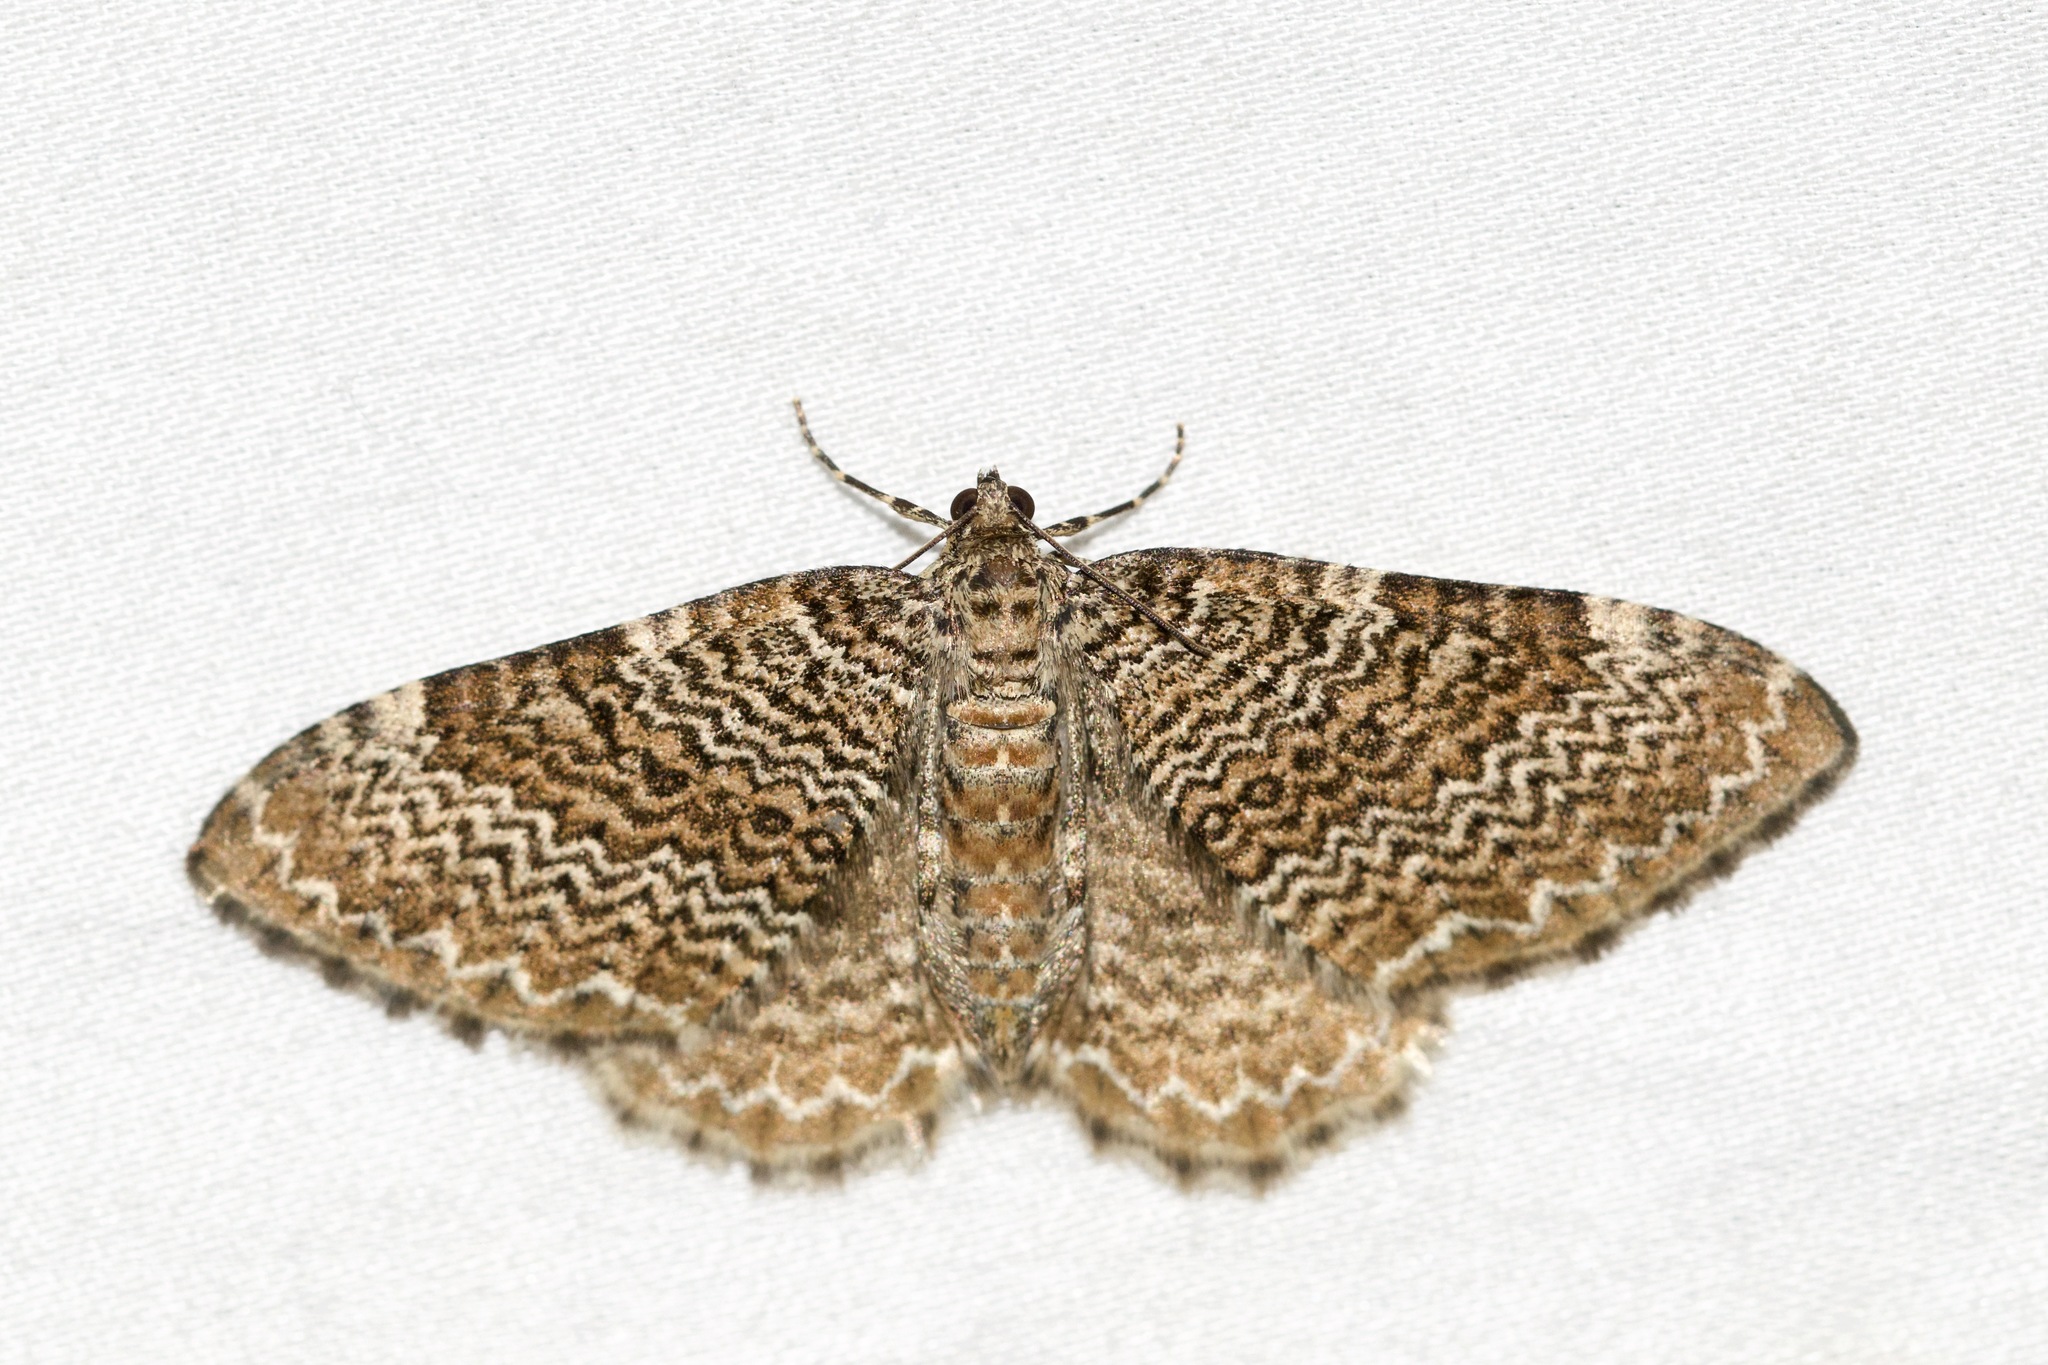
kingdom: Animalia
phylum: Arthropoda
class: Insecta
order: Lepidoptera
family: Geometridae
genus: Rheumaptera
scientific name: Rheumaptera prunivorata
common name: Cherry scallop shell moth
